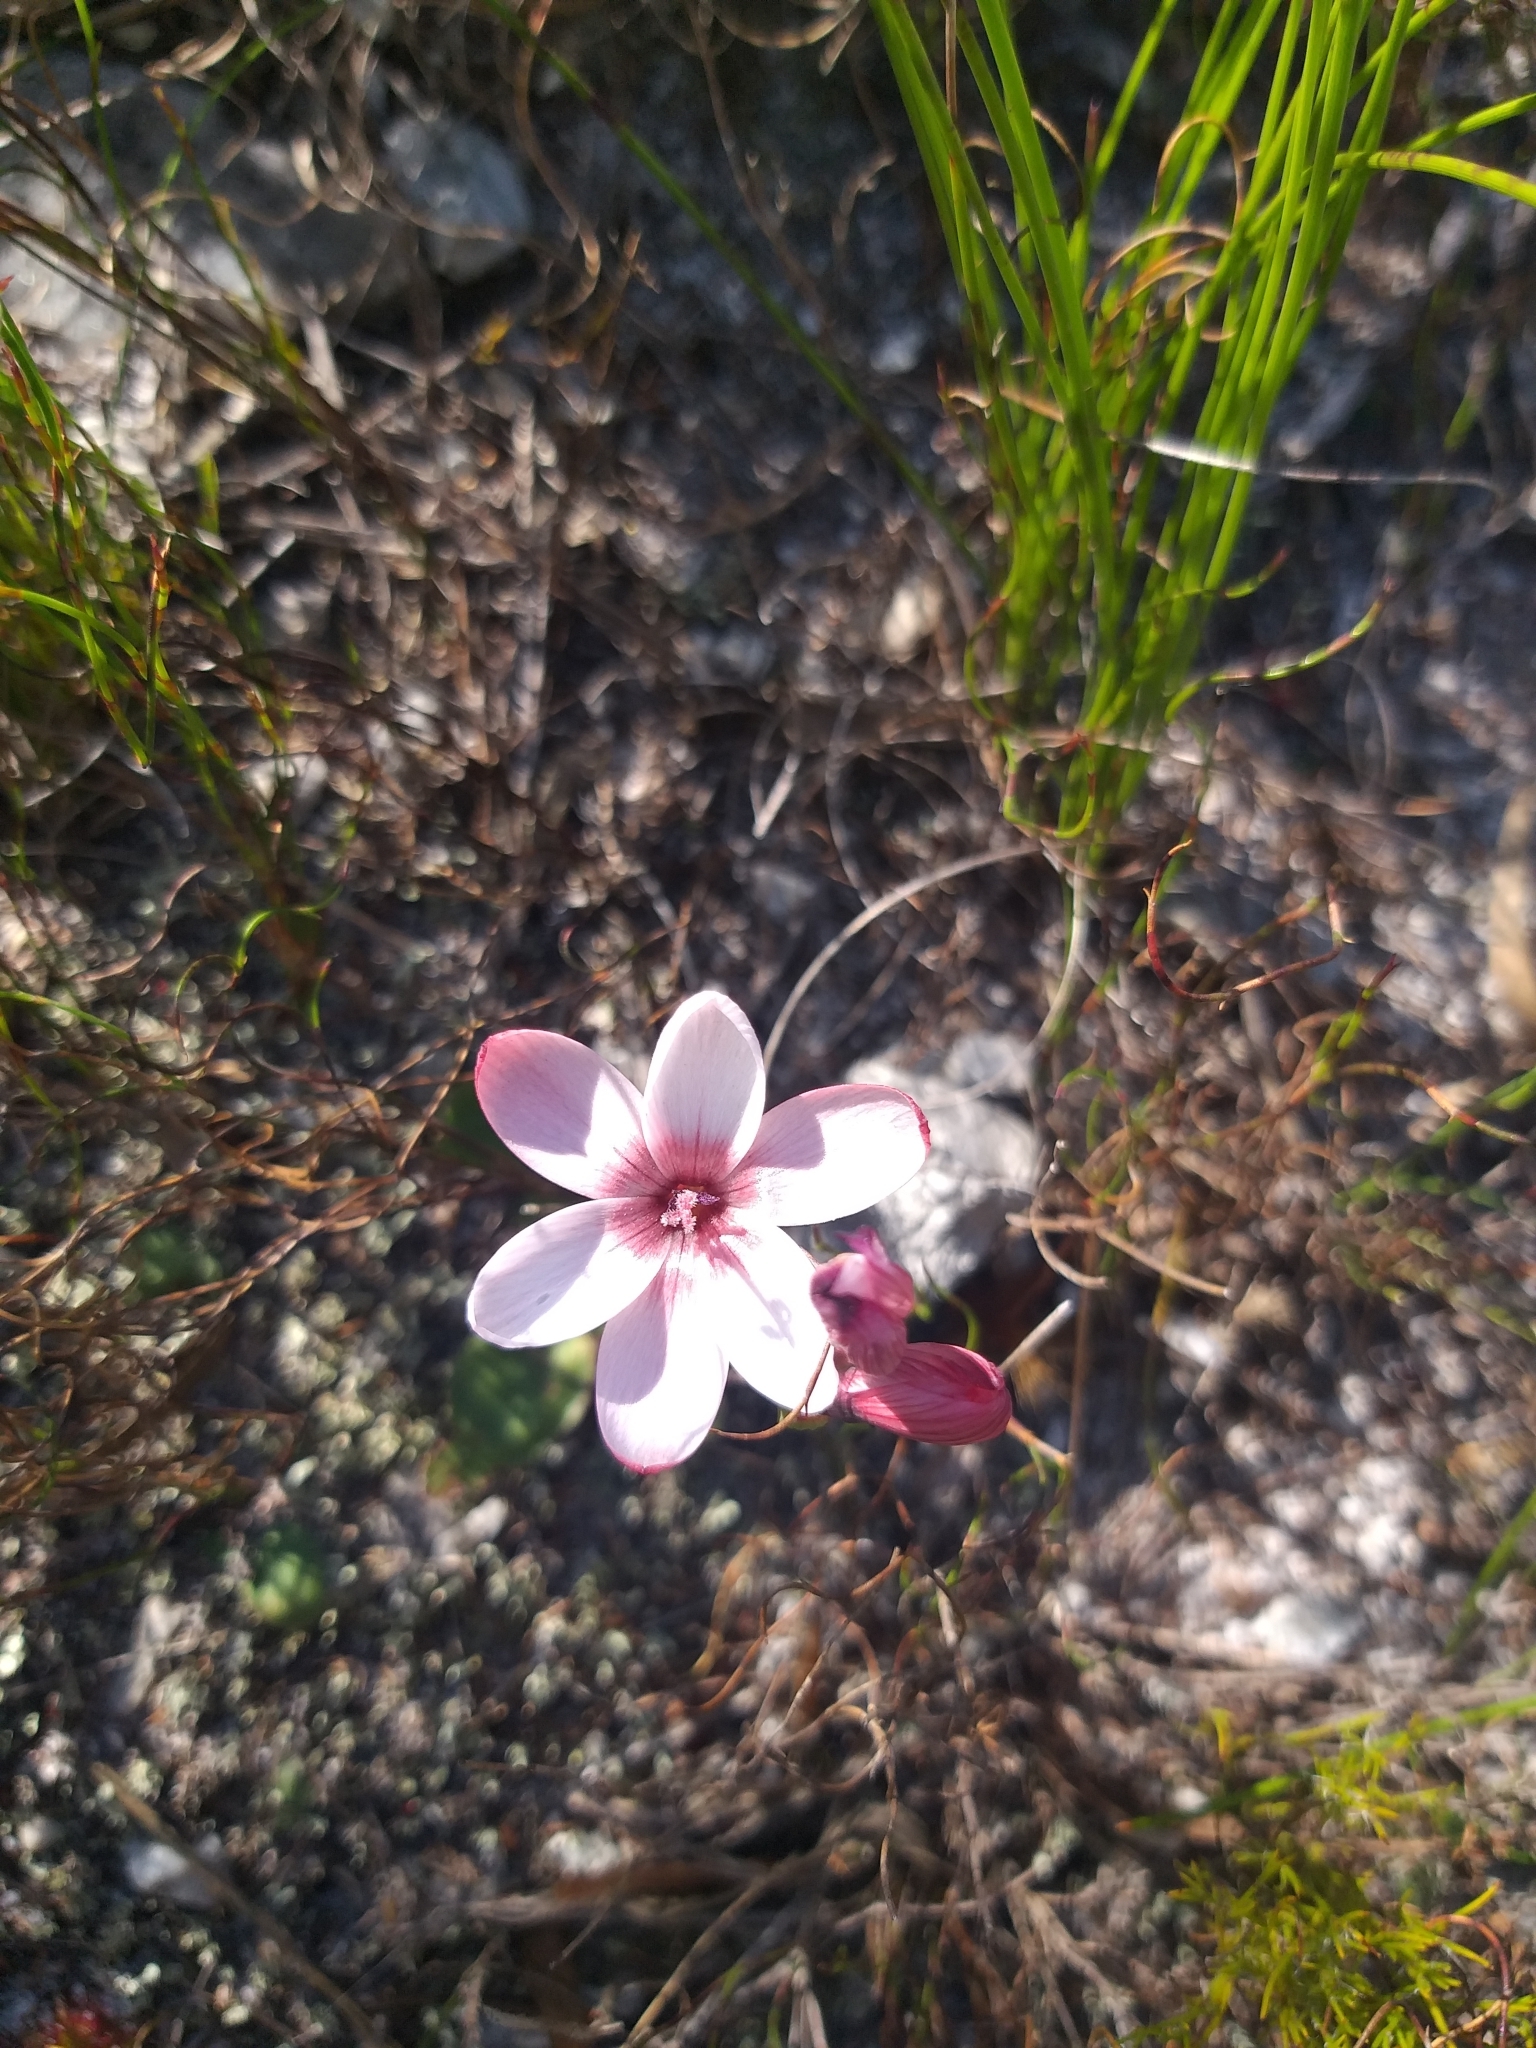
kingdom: Plantae
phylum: Tracheophyta
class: Liliopsida
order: Asparagales
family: Iridaceae
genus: Geissorhiza
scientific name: Geissorhiza ovata
